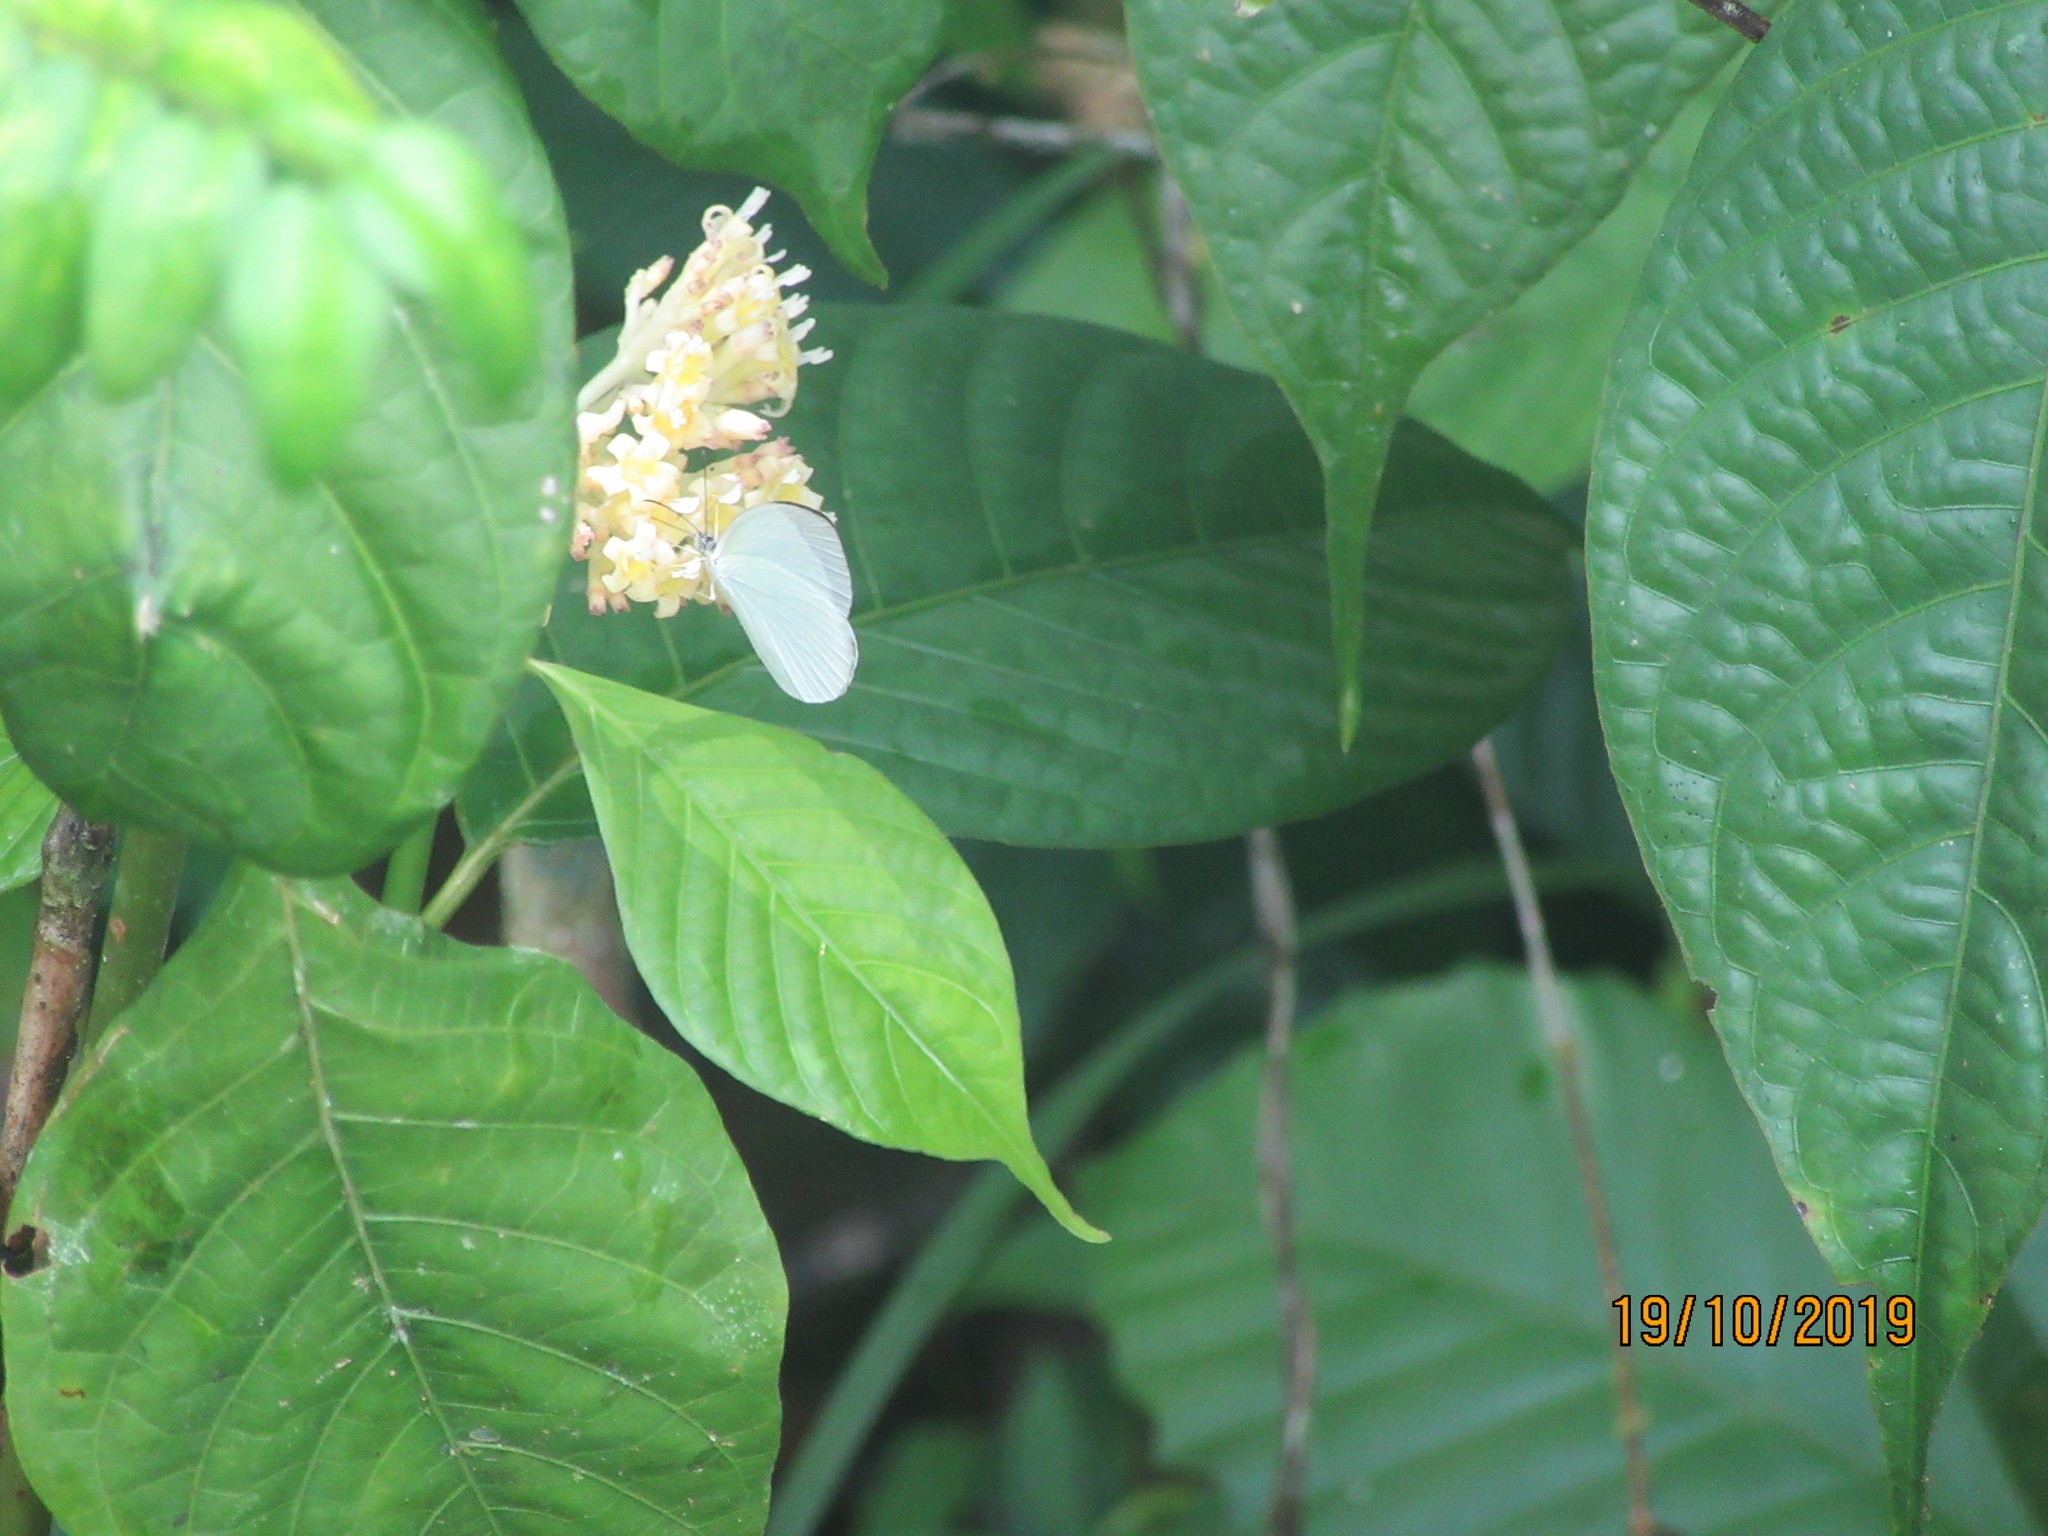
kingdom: Plantae
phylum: Tracheophyta
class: Magnoliopsida
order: Gentianales
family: Rubiaceae
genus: Palicourea
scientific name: Palicourea didymocarpos
